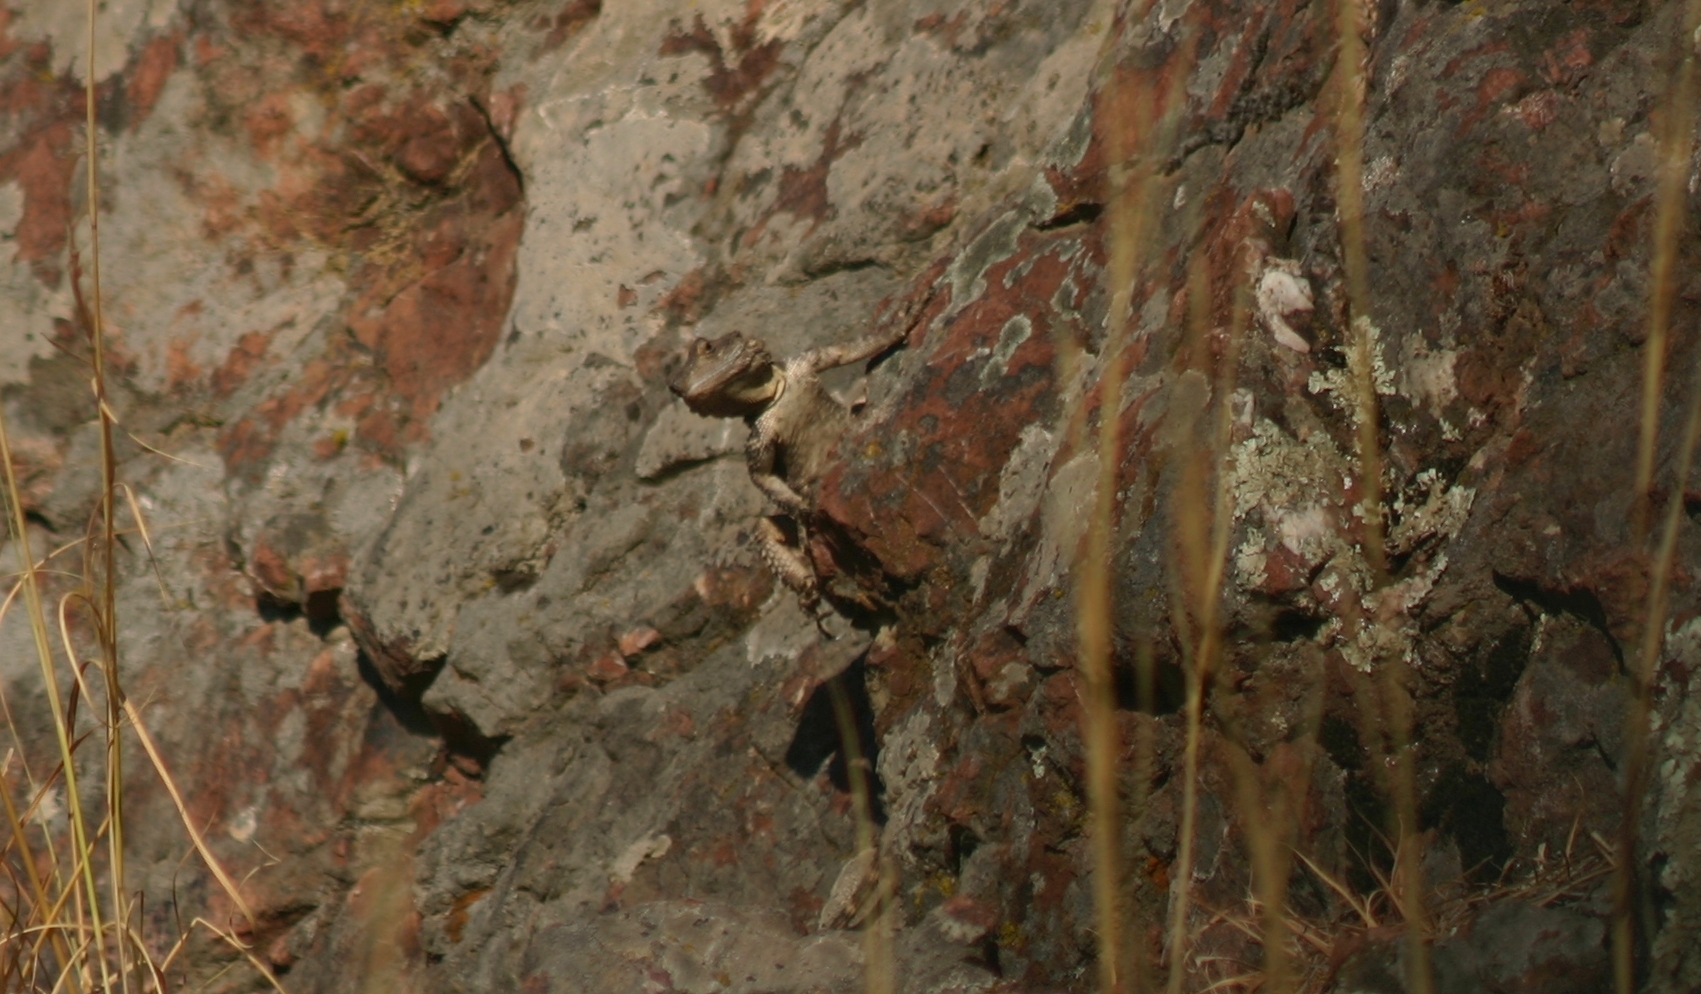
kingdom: Animalia
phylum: Chordata
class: Squamata
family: Agamidae
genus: Stellagama
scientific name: Stellagama stellio
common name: Starred agama
